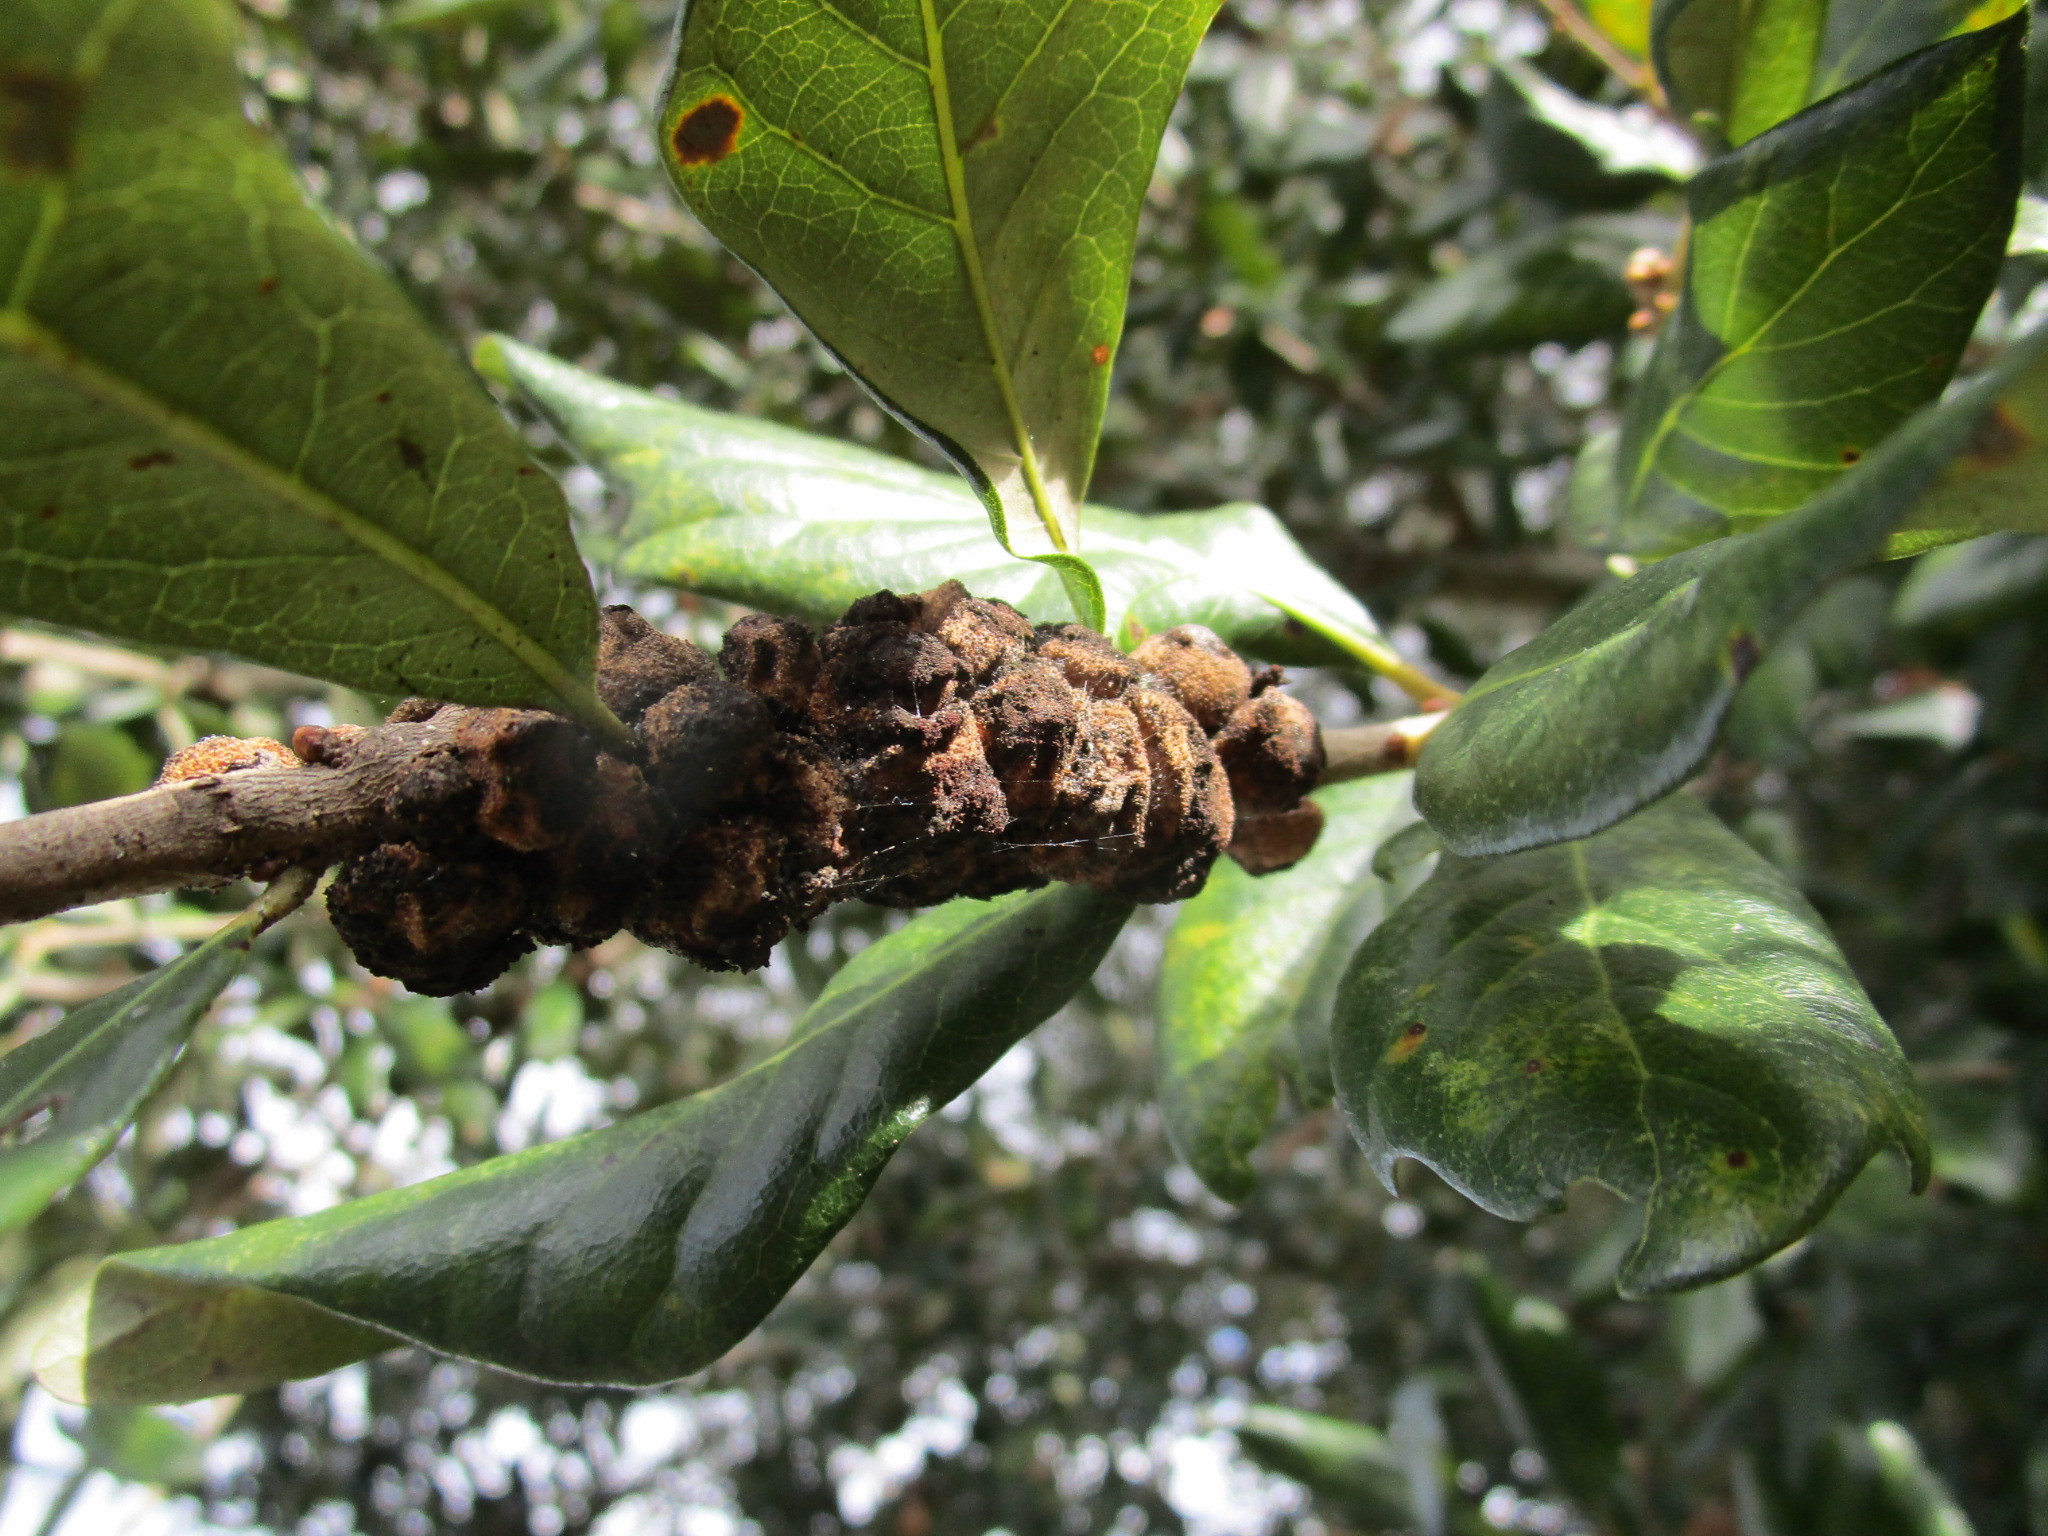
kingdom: Animalia
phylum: Arthropoda
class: Insecta
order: Hymenoptera
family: Cynipidae
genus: Disholcaspis
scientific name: Disholcaspis
